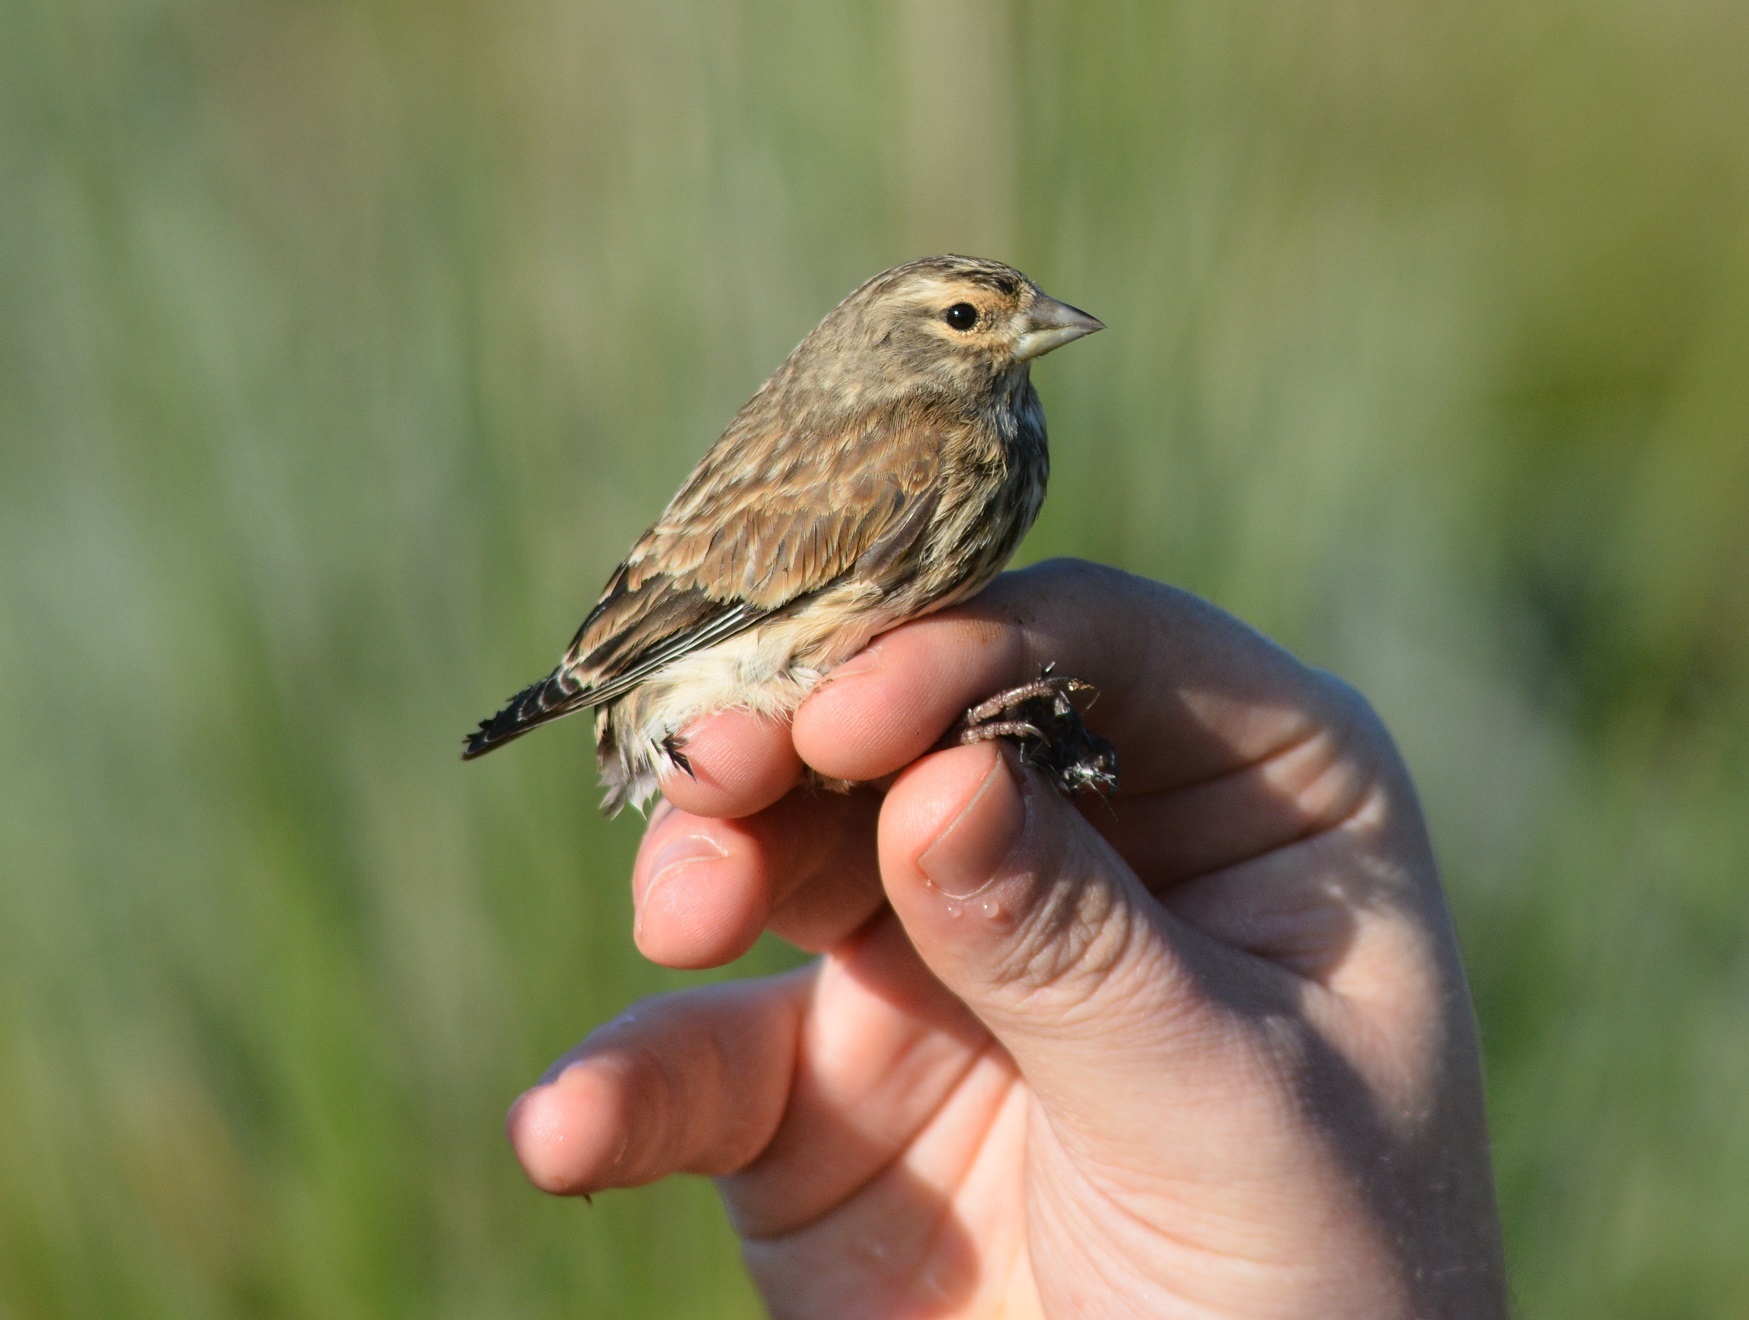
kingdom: Animalia
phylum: Chordata
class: Aves
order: Passeriformes
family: Fringillidae
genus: Linaria
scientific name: Linaria cannabina
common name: Common linnet
